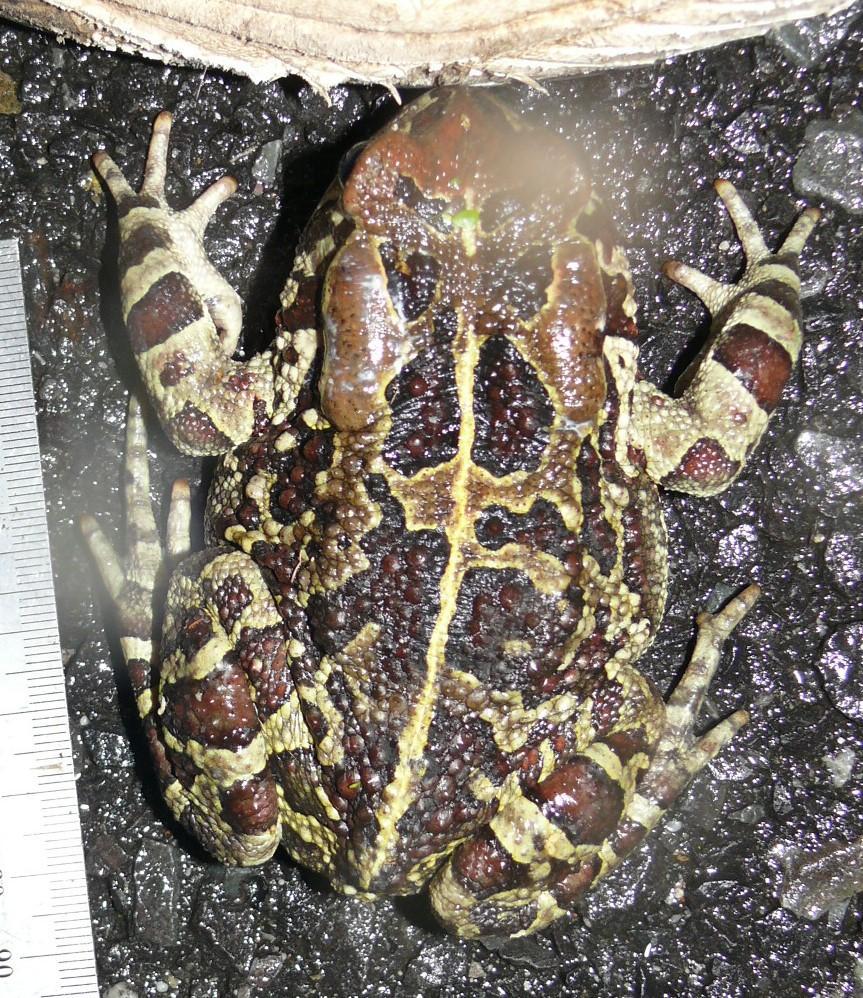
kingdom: Animalia
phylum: Chordata
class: Amphibia
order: Anura
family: Bufonidae
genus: Sclerophrys
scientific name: Sclerophrys pantherina
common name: Panther toad
